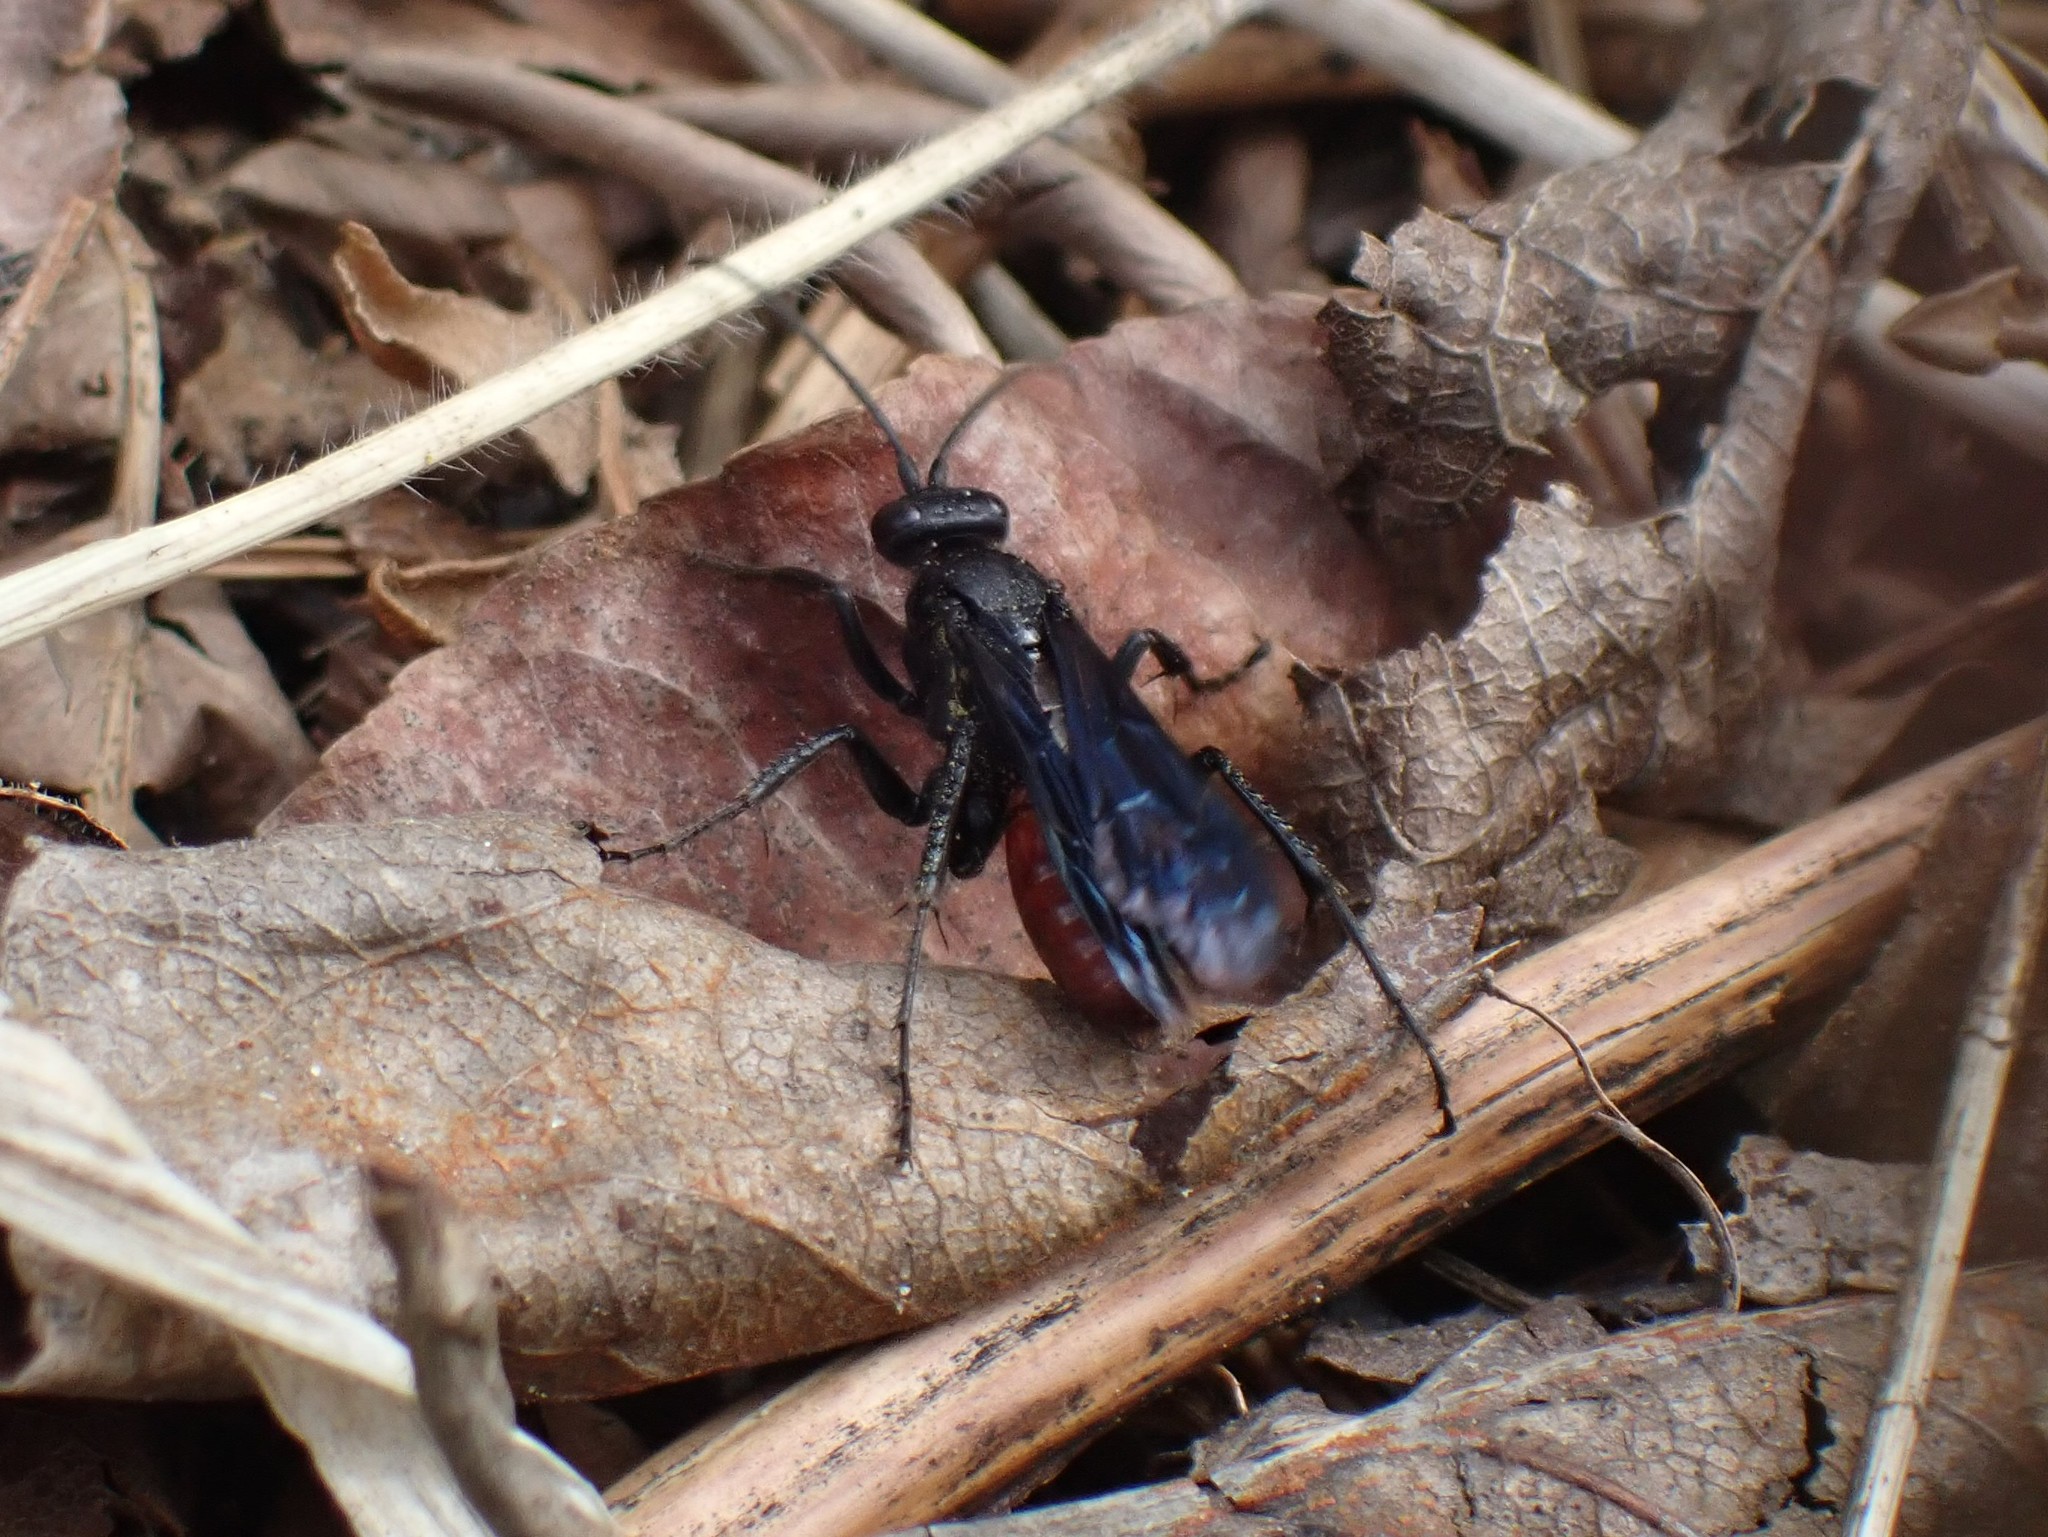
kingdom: Animalia
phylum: Arthropoda
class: Insecta
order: Hymenoptera
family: Pompilidae
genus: Priocnemis
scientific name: Priocnemis oregona
